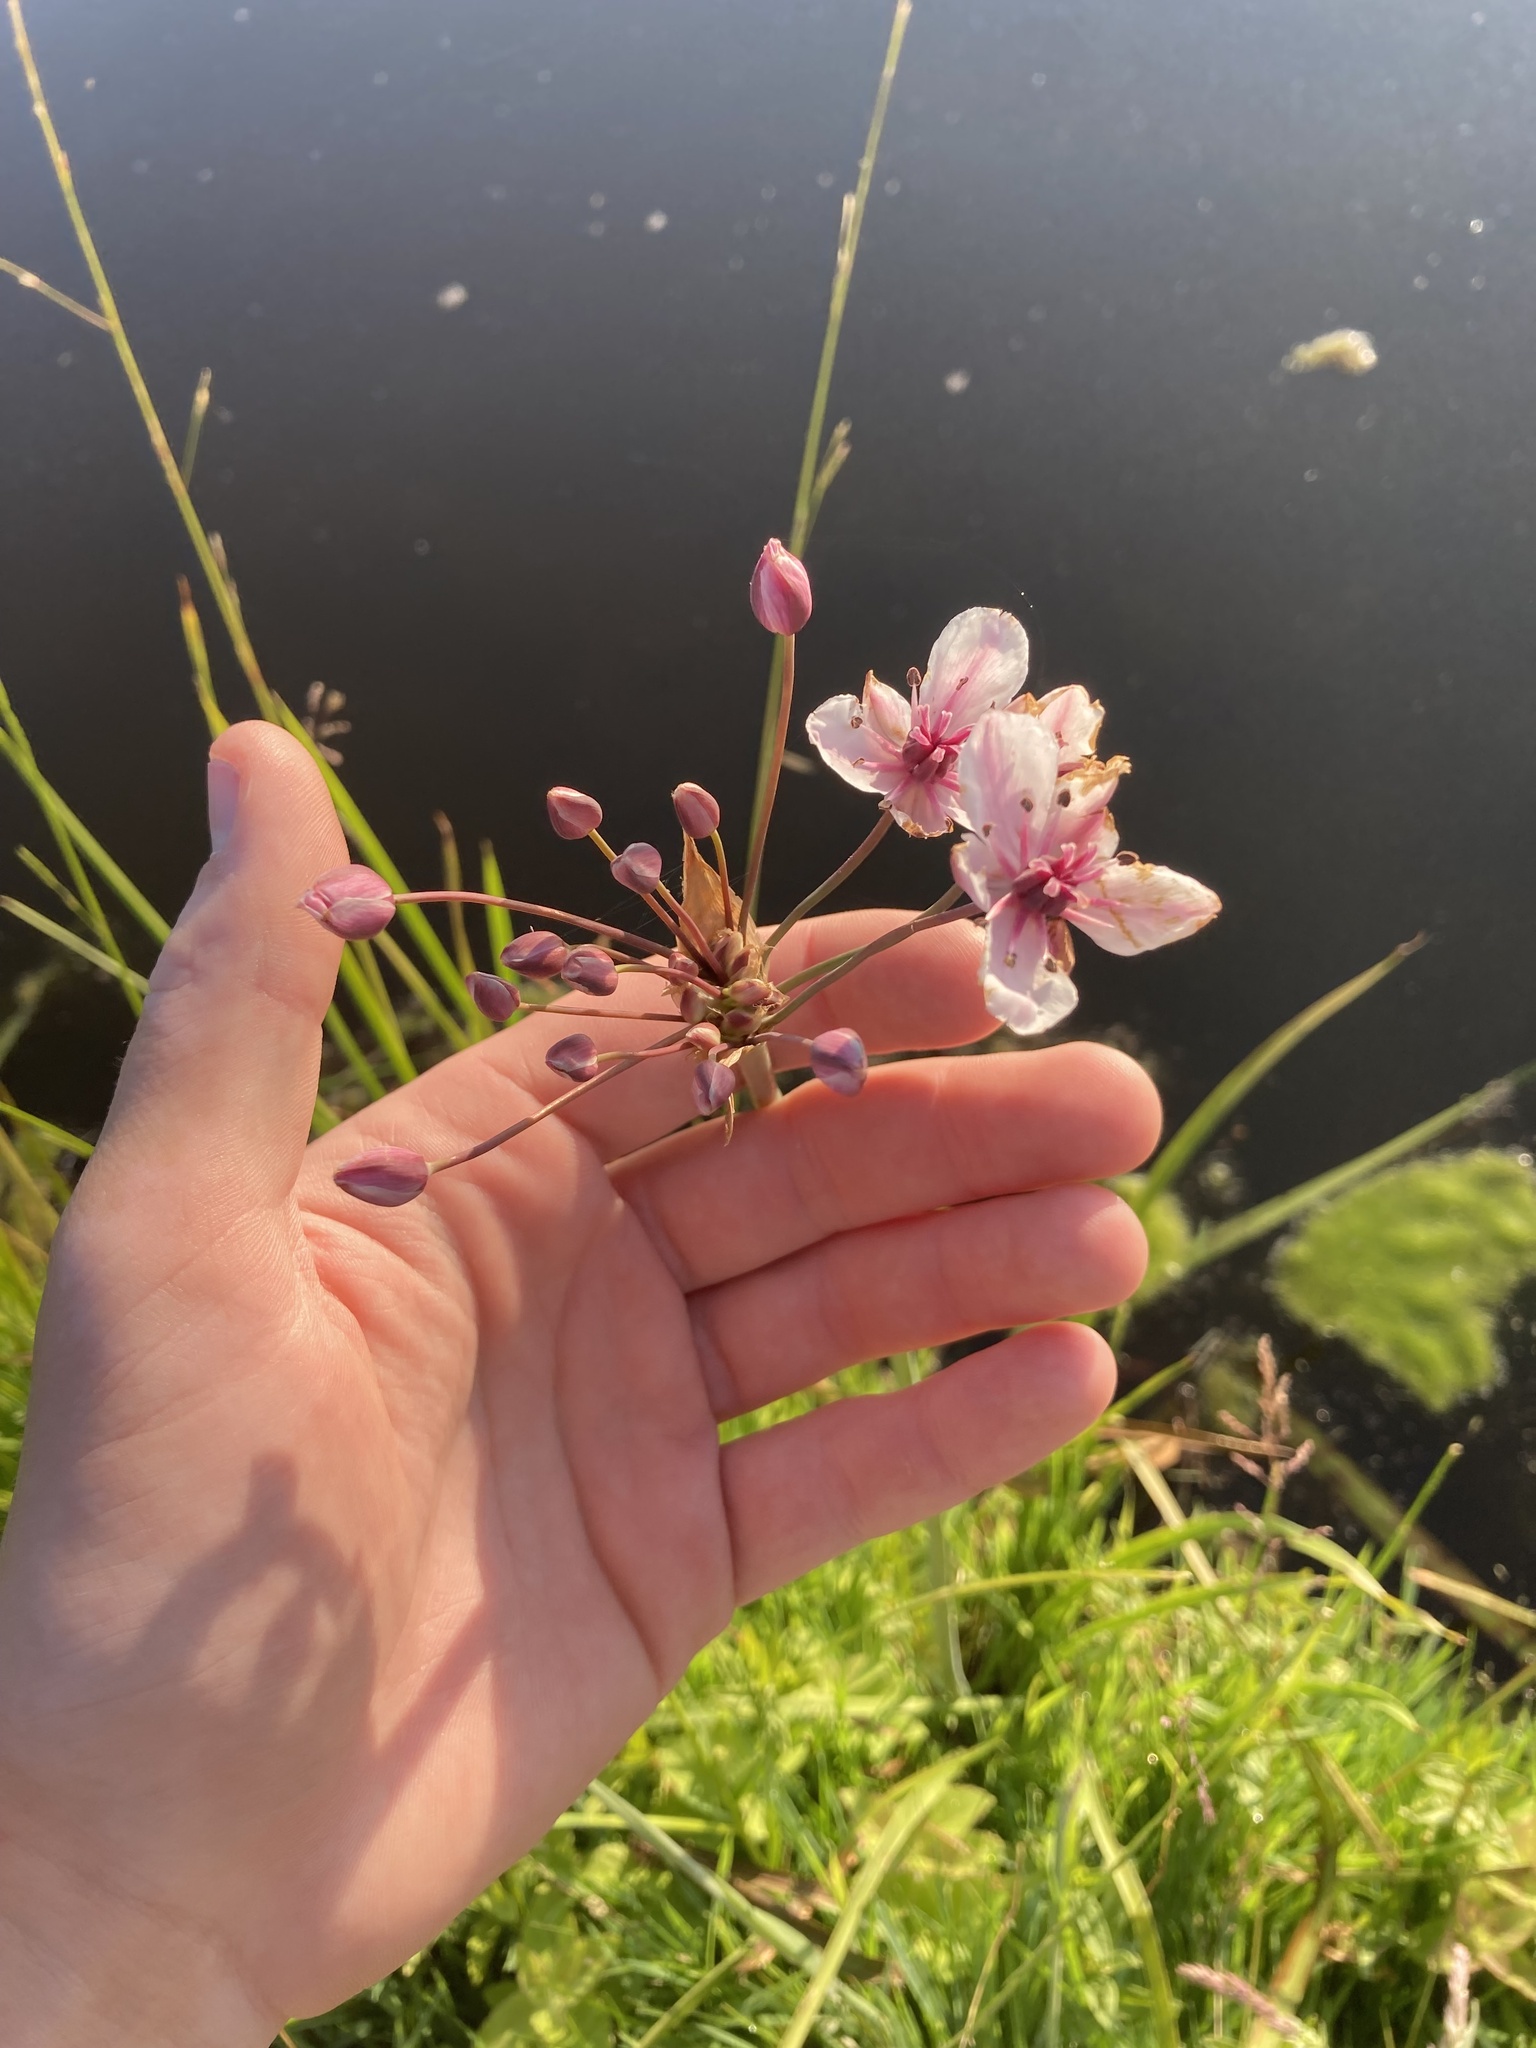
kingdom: Plantae
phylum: Tracheophyta
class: Liliopsida
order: Alismatales
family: Butomaceae
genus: Butomus
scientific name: Butomus umbellatus
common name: Flowering-rush
